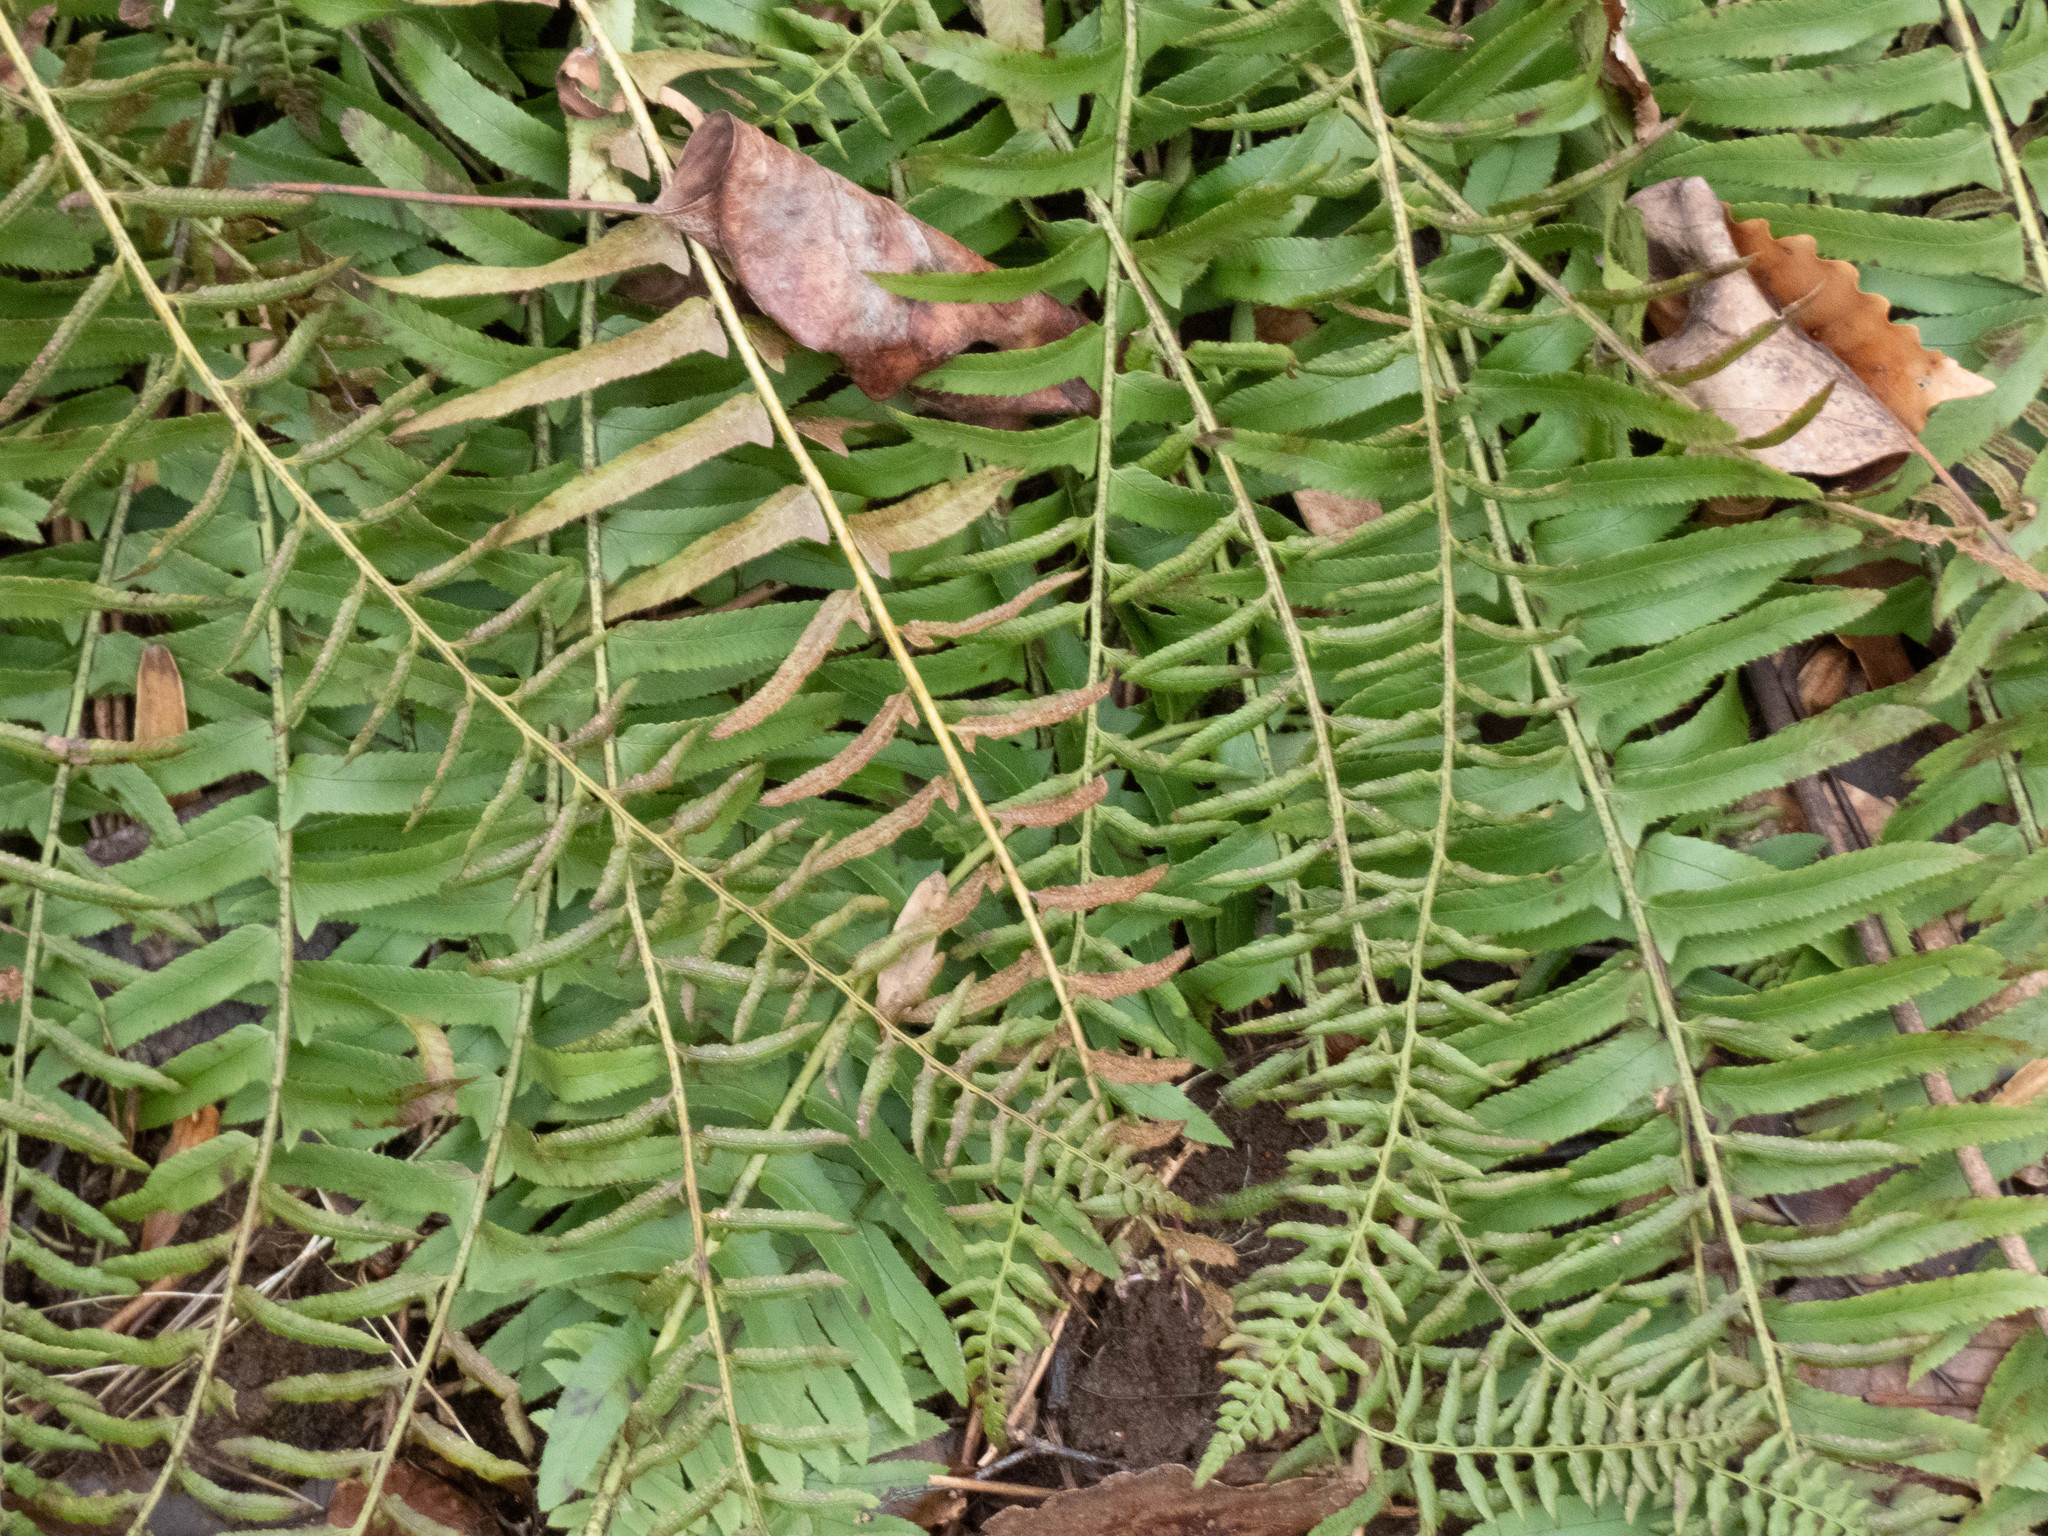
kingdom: Plantae
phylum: Tracheophyta
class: Polypodiopsida
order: Polypodiales
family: Dryopteridaceae
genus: Polystichum
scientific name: Polystichum acrostichoides
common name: Christmas fern
